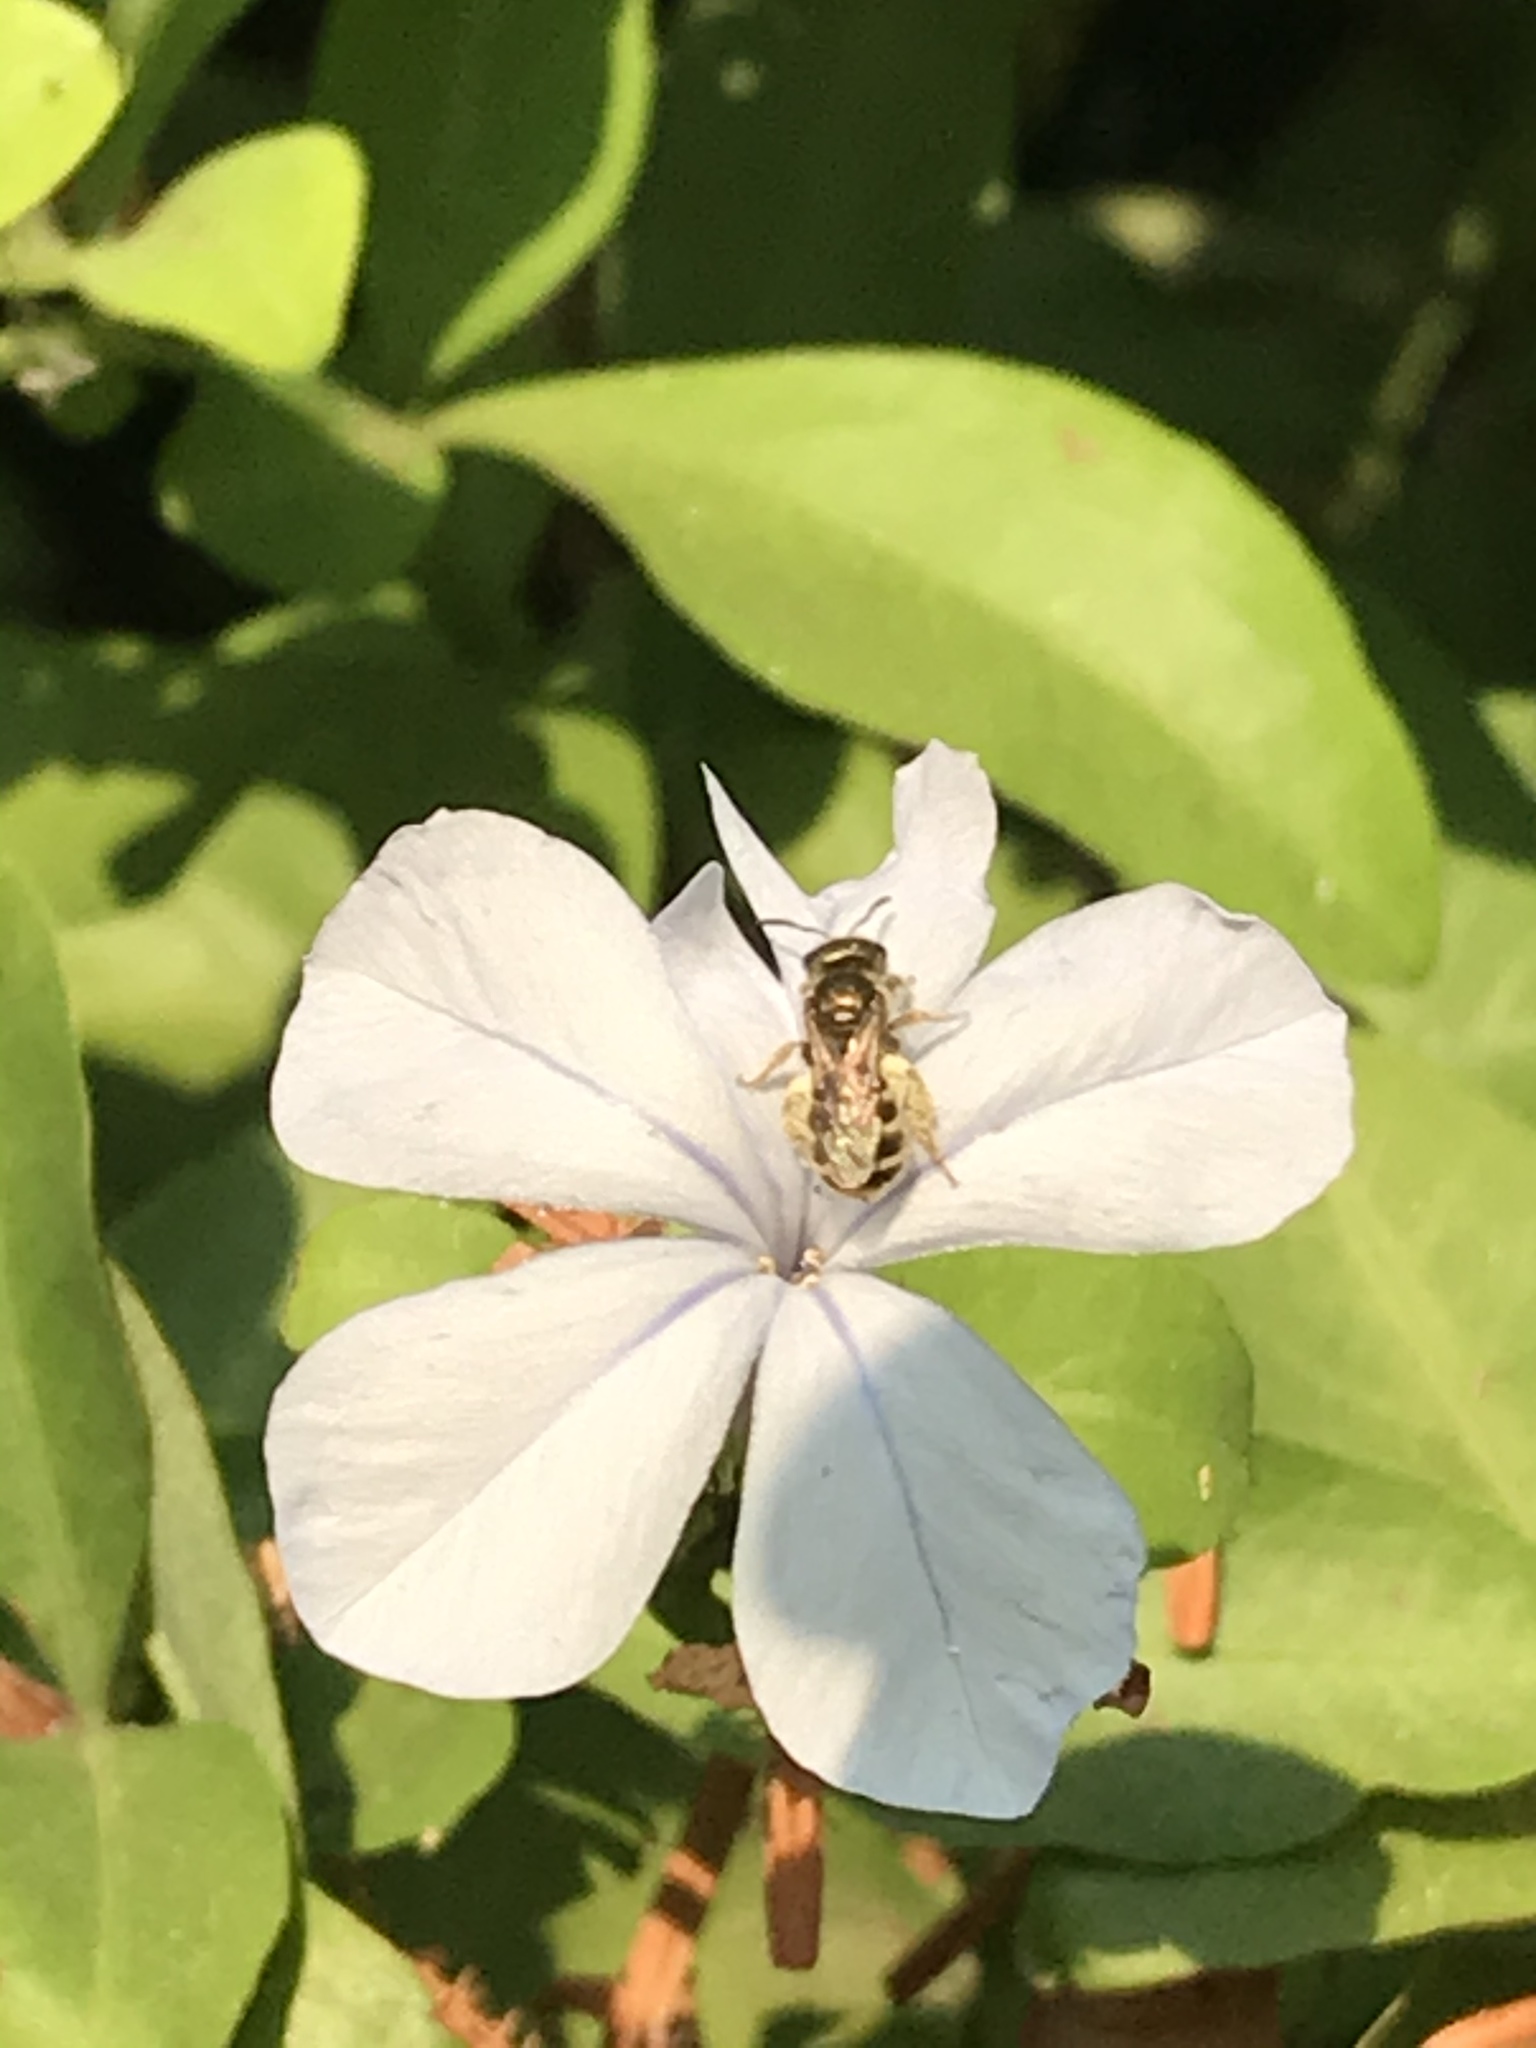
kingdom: Animalia
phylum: Arthropoda
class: Insecta
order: Hymenoptera
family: Halictidae
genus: Halictus
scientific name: Halictus tripartitus
